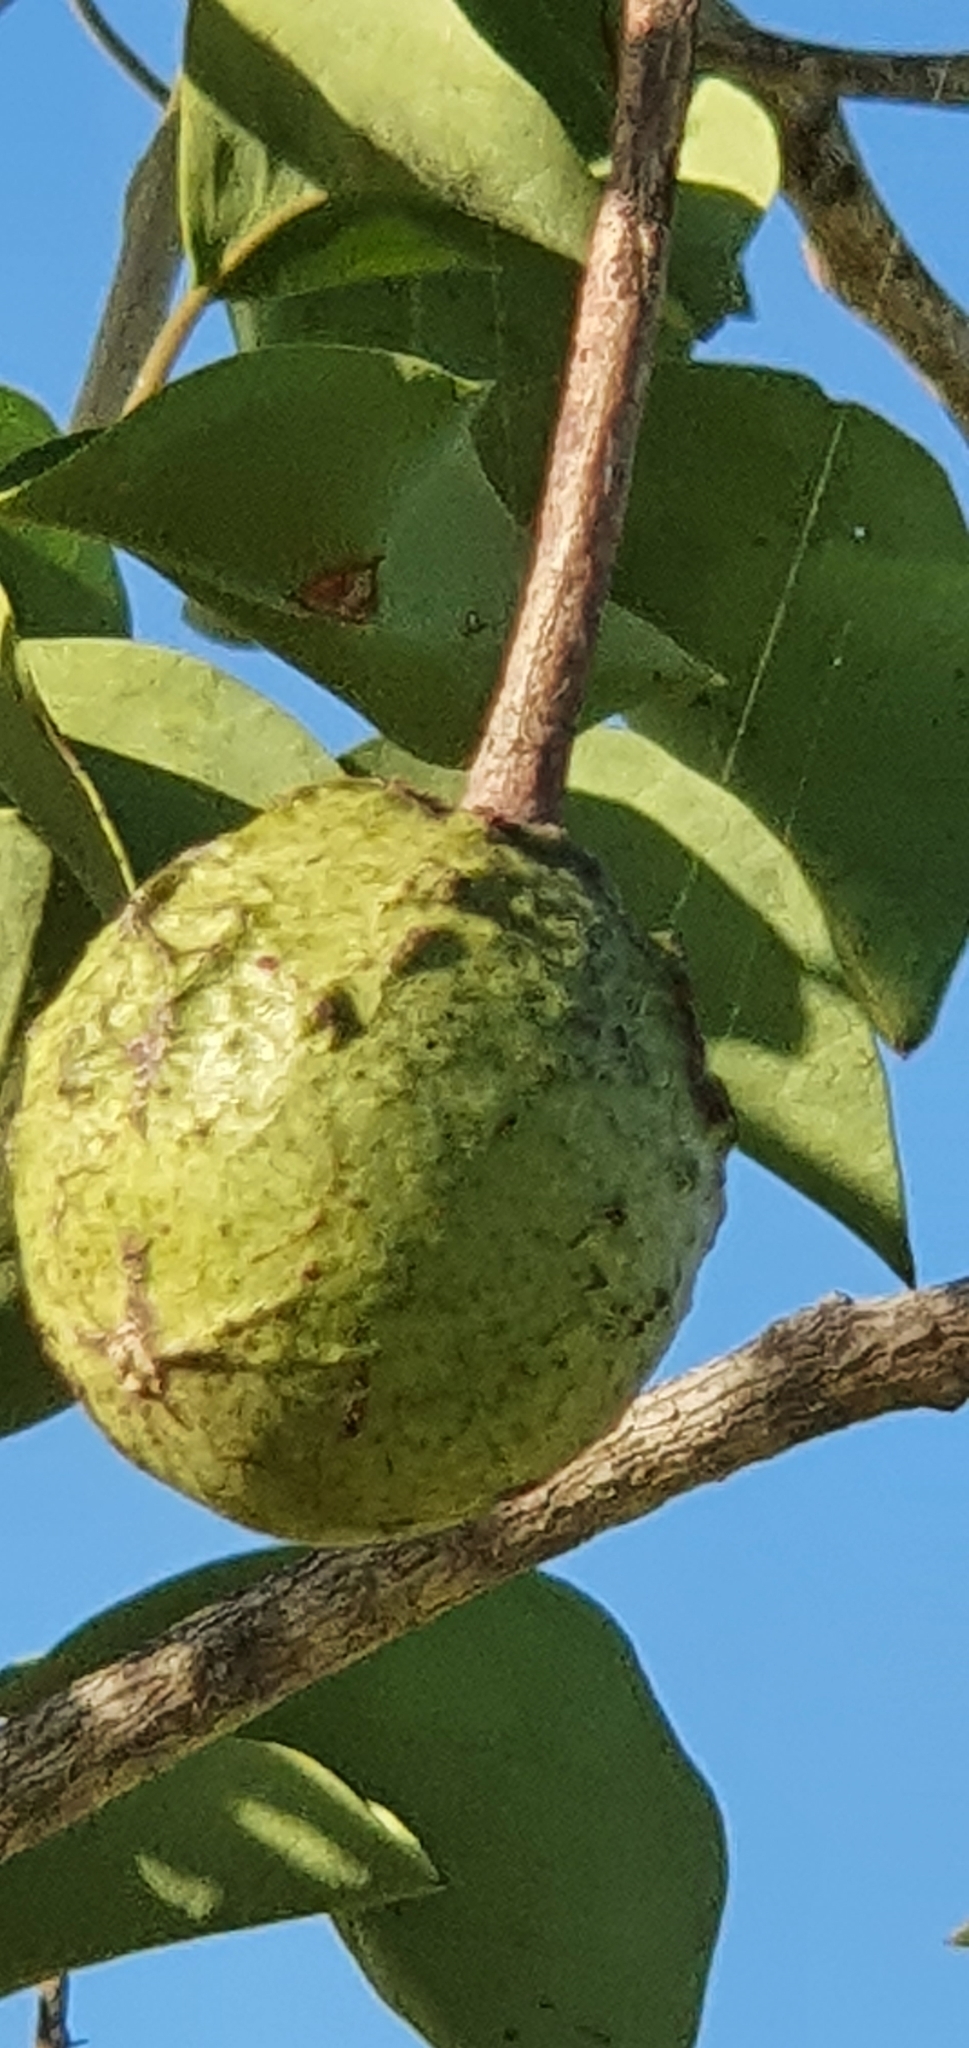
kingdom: Plantae
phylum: Tracheophyta
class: Magnoliopsida
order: Brassicales
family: Capparaceae
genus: Capparis
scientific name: Capparis canescens
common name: Native caper
